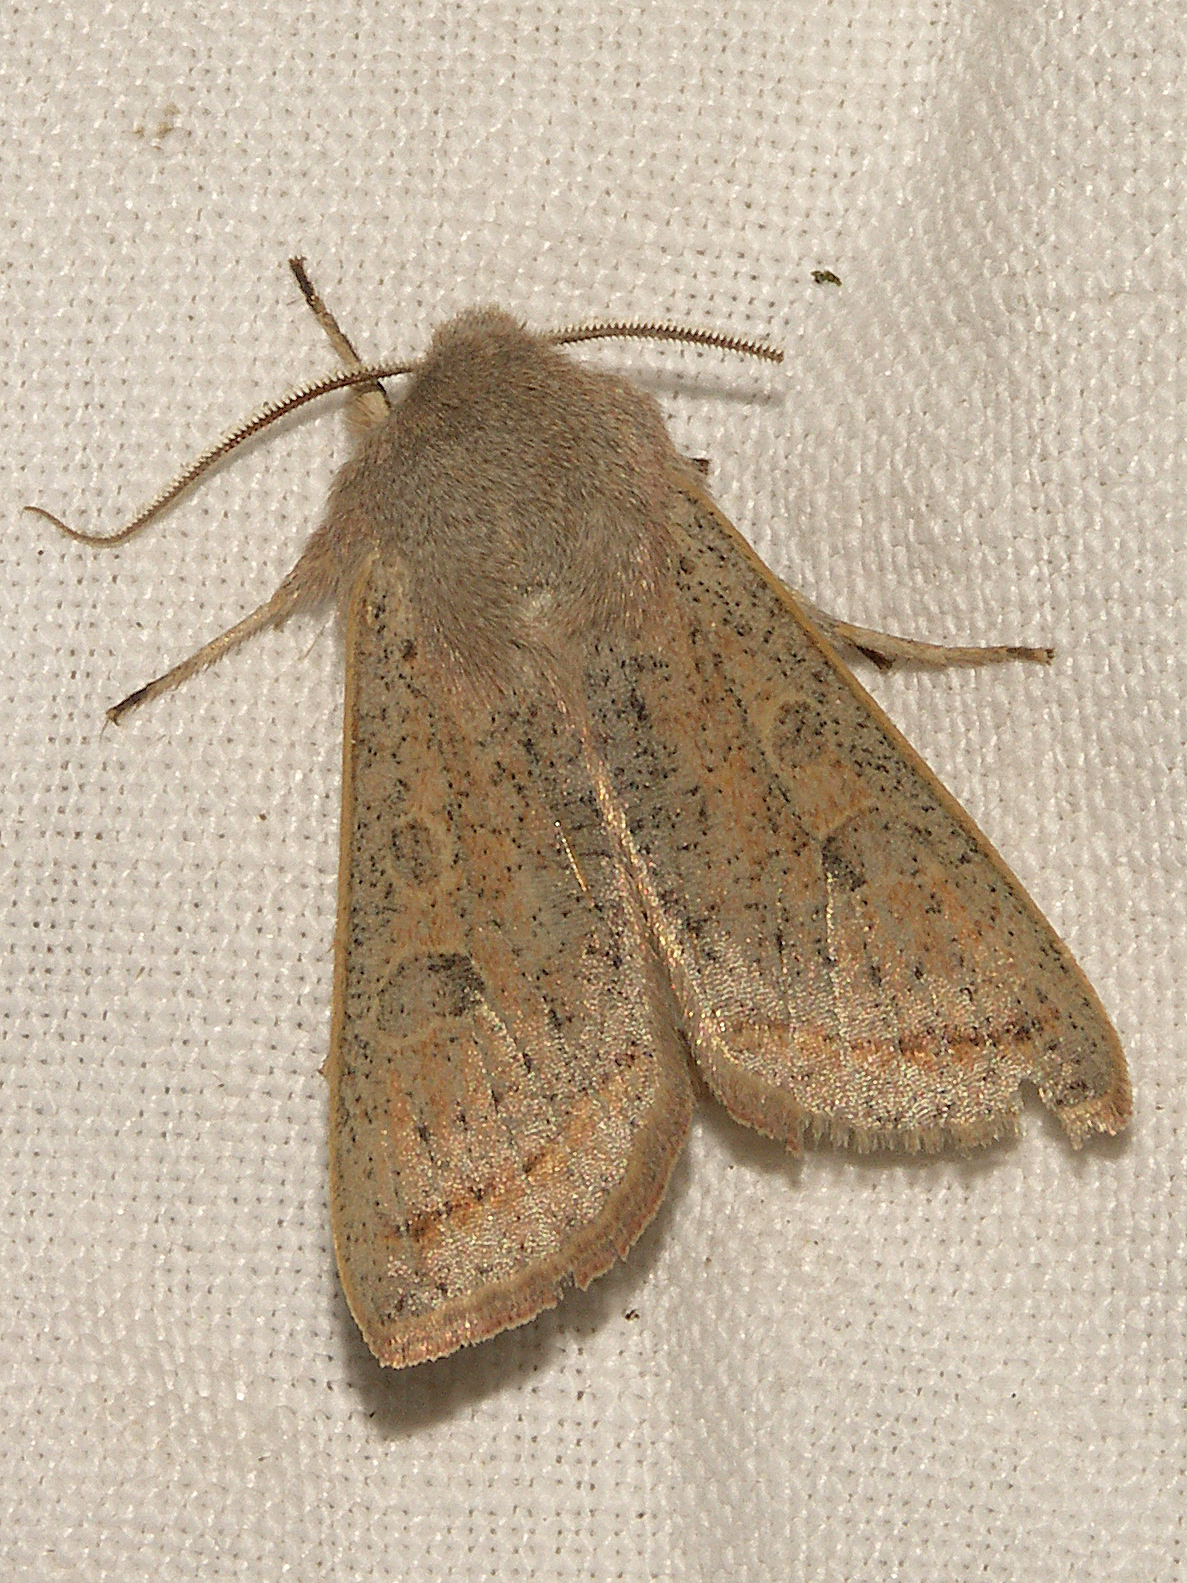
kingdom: Animalia
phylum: Arthropoda
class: Insecta
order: Lepidoptera
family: Noctuidae
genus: Orthosia
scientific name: Orthosia gracilis
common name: Powdered quaker
